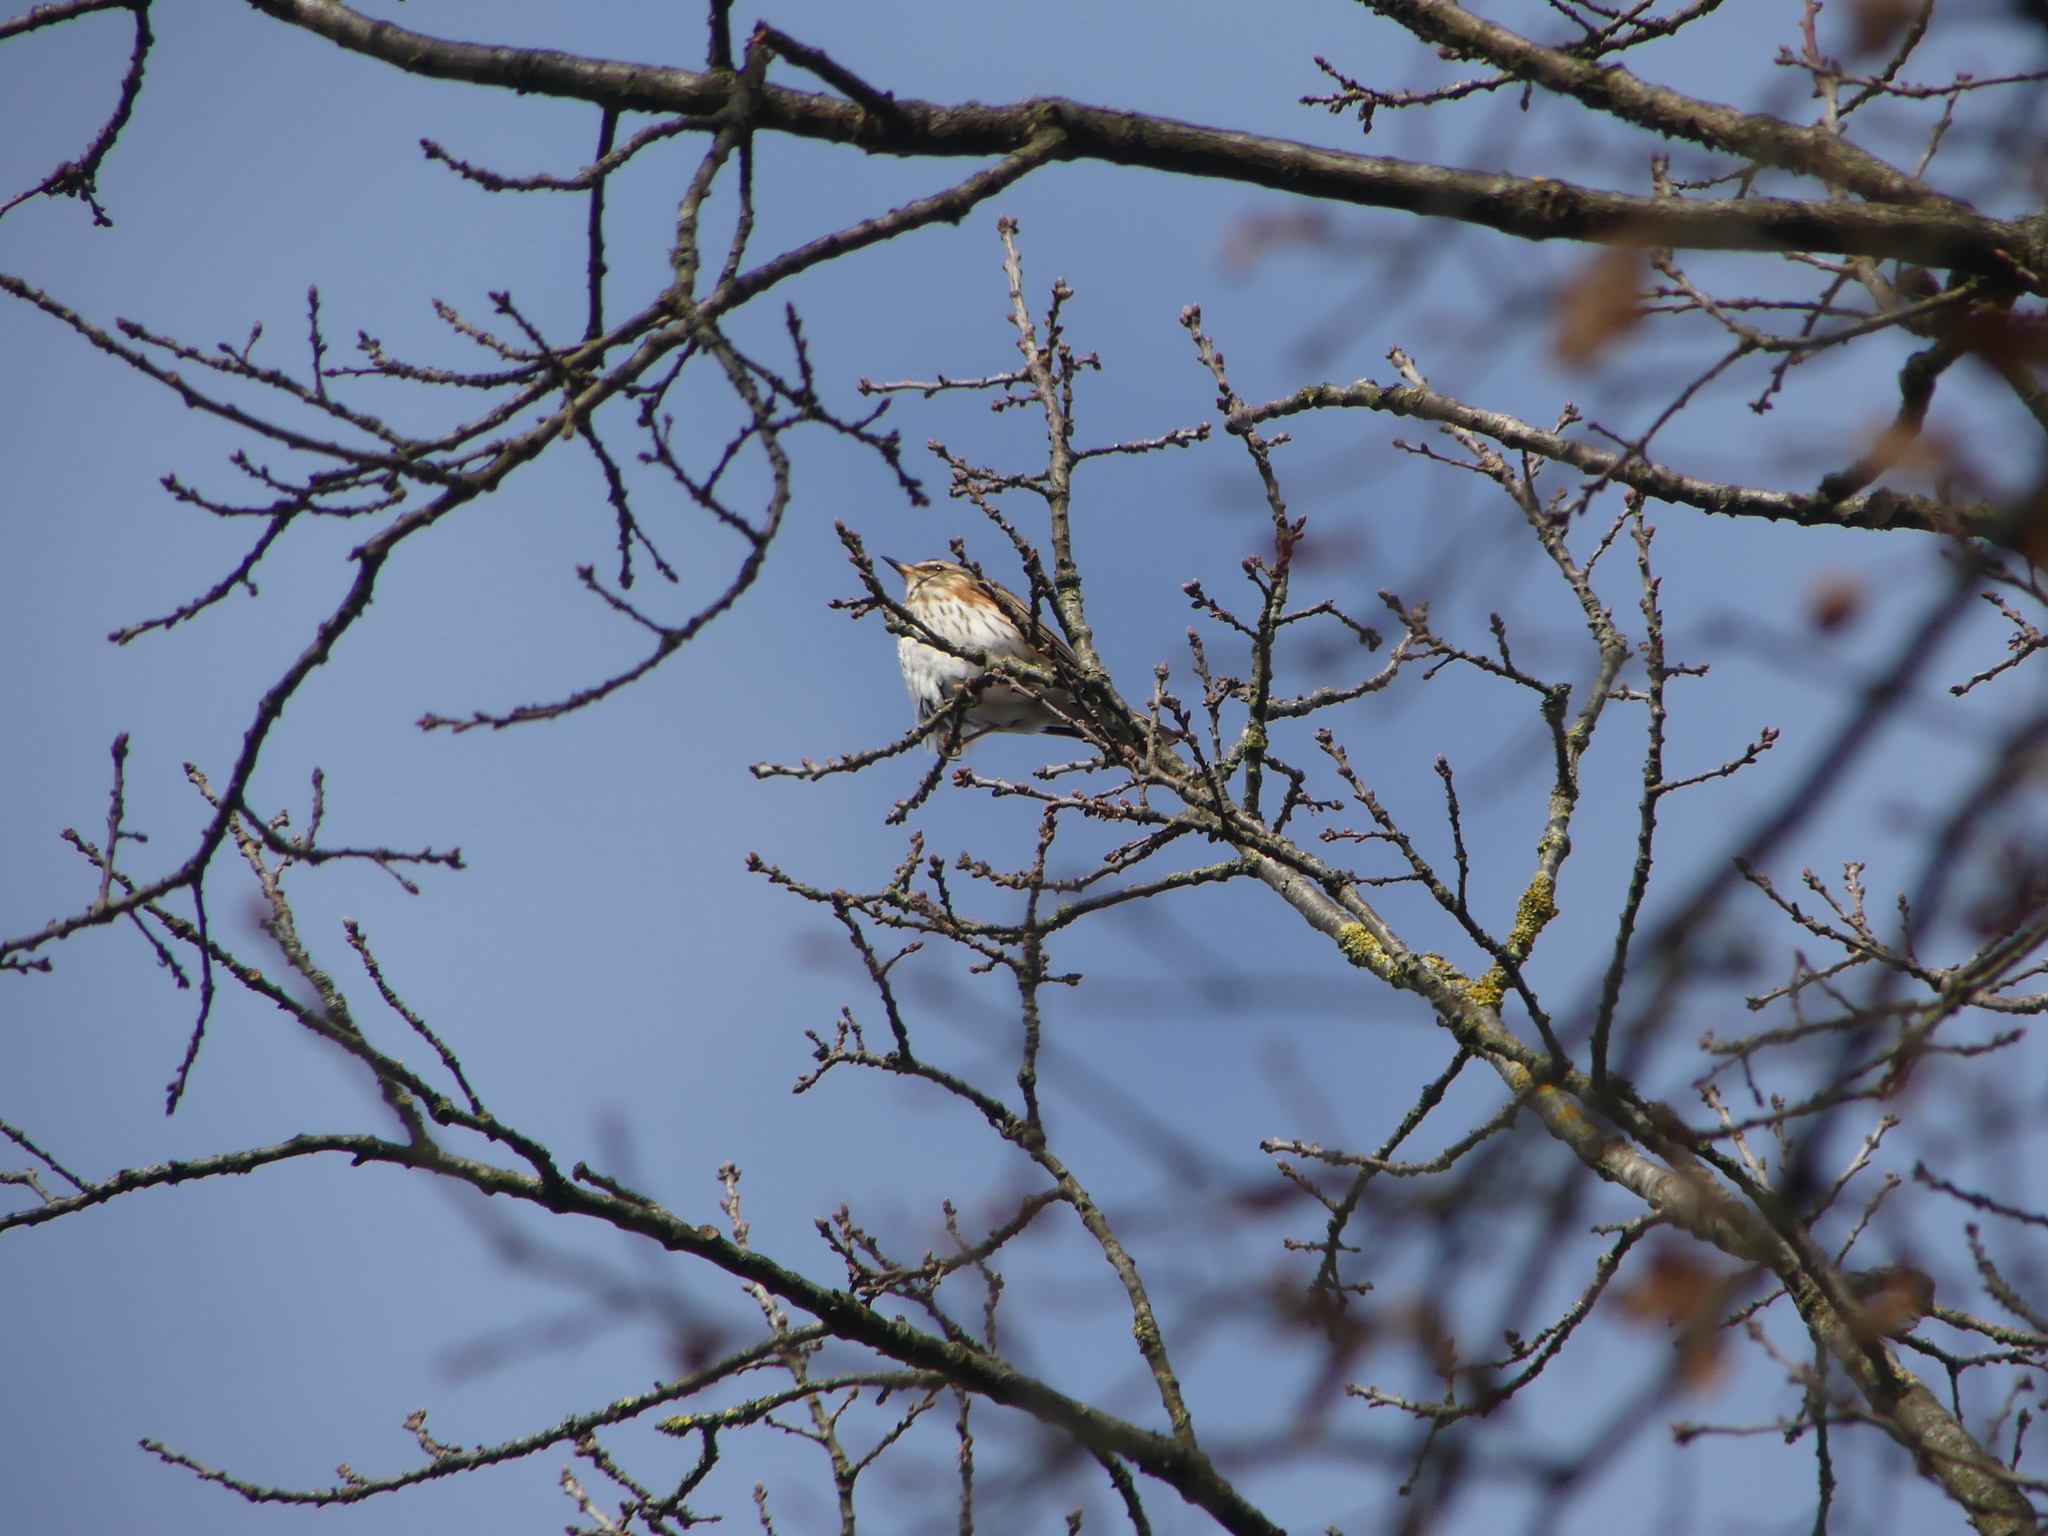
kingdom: Animalia
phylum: Chordata
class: Aves
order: Passeriformes
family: Turdidae
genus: Turdus
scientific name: Turdus iliacus
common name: Redwing
